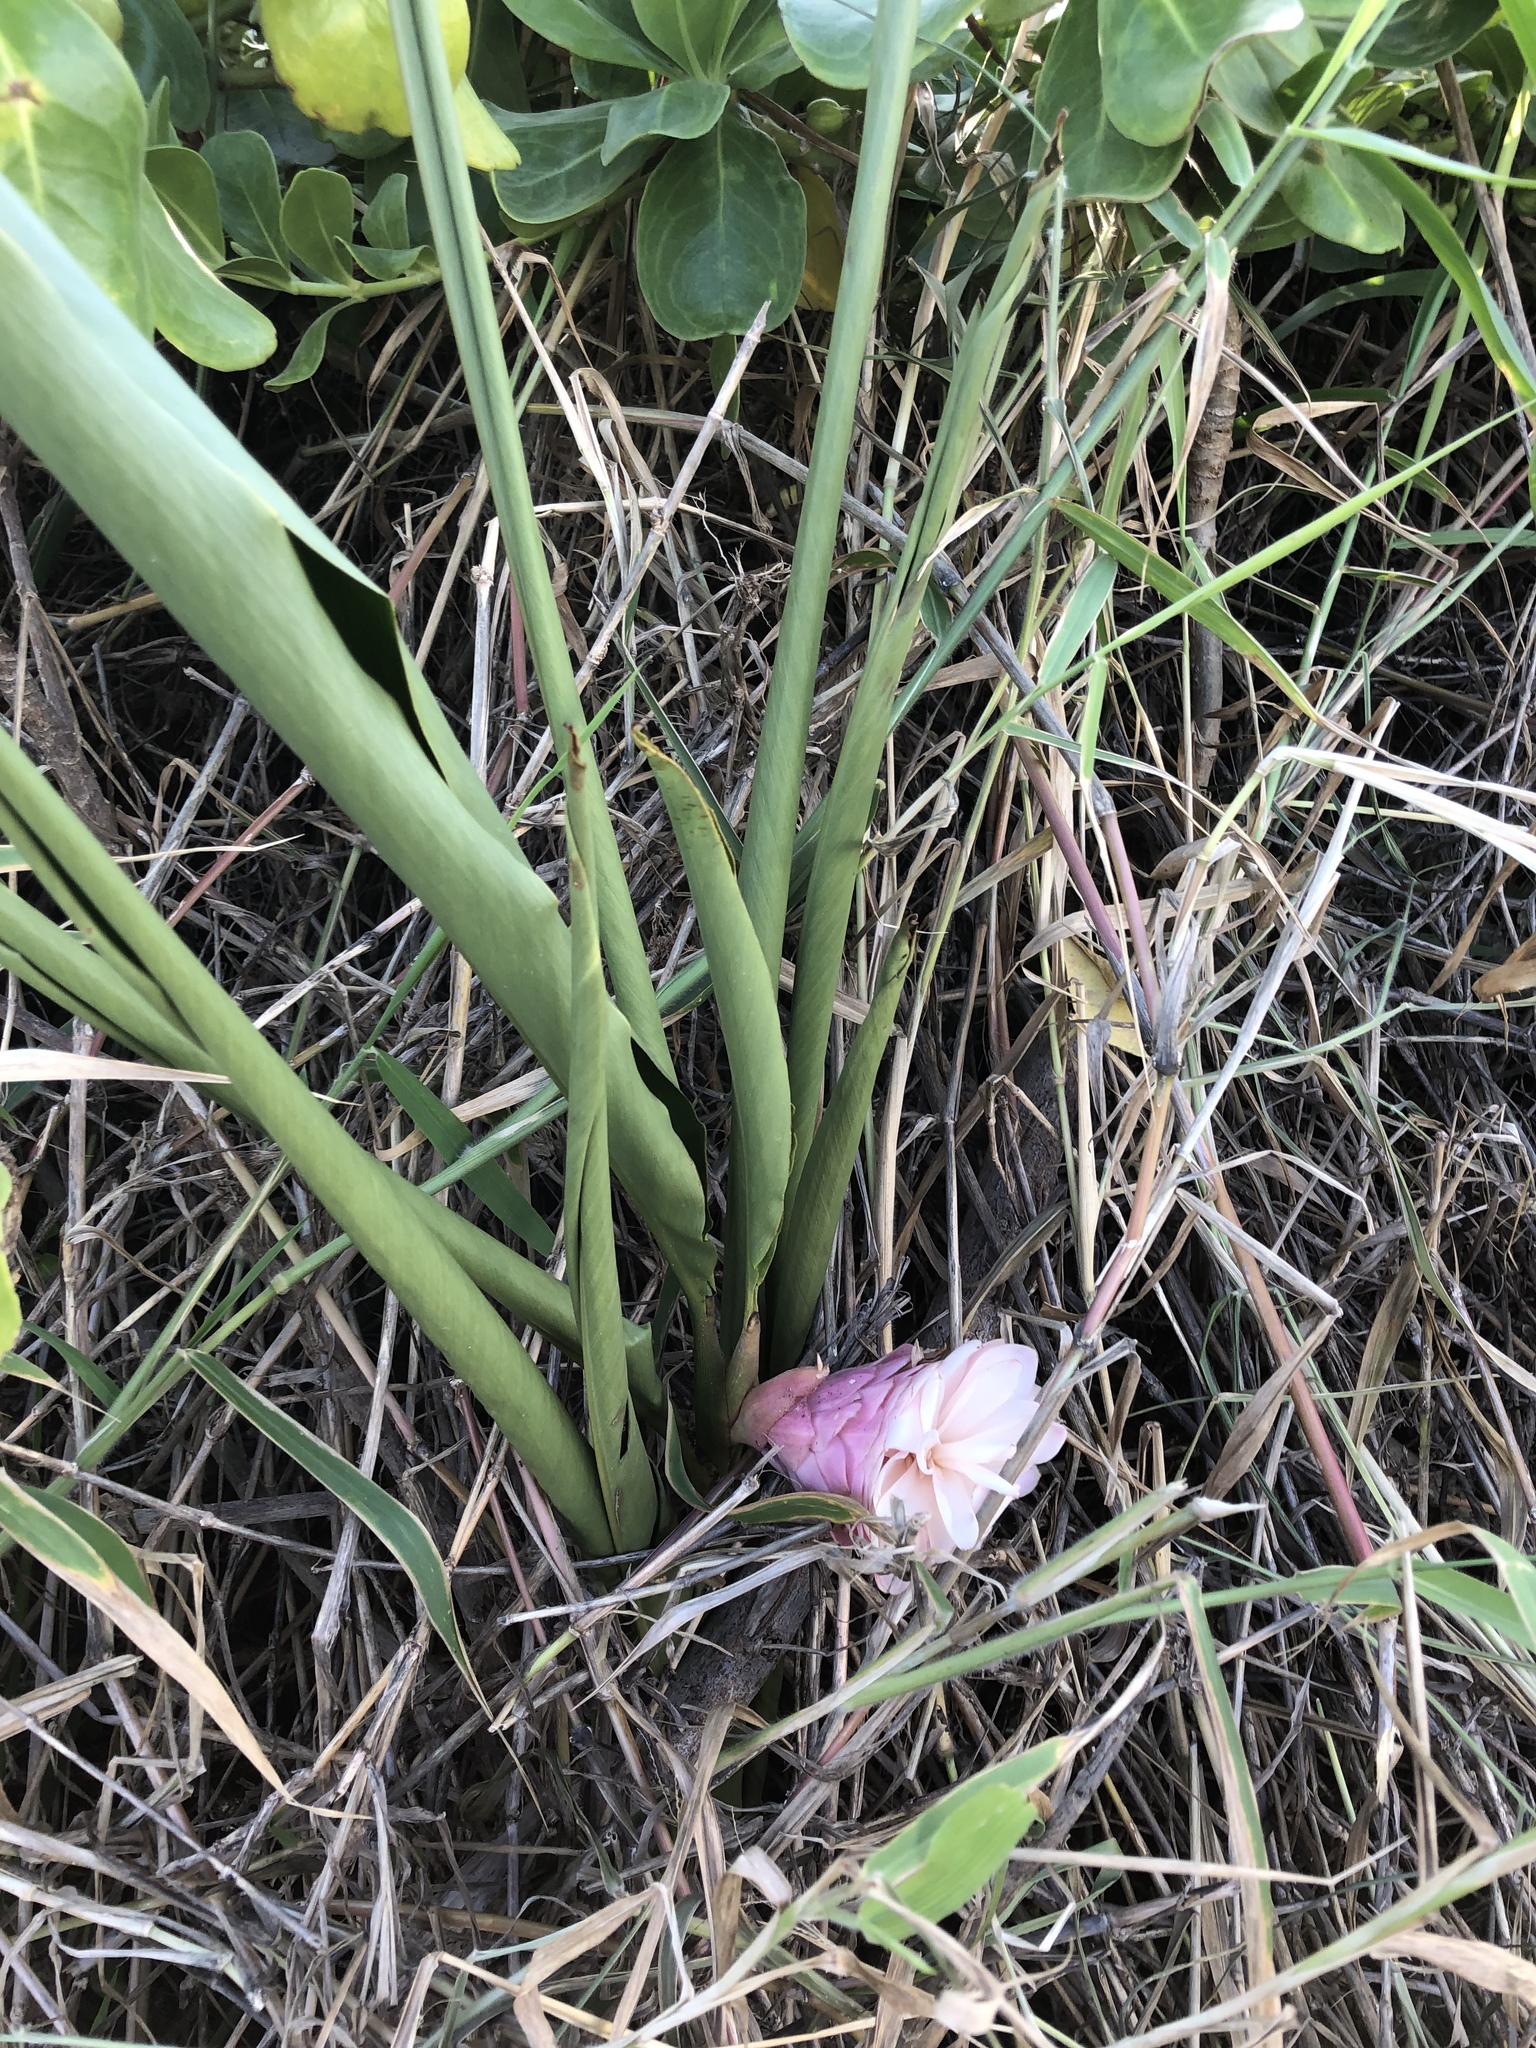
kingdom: Plantae
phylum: Tracheophyta
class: Liliopsida
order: Zingiberales
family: Zingiberaceae
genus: Alpinia
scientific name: Alpinia purpurata
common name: Red ginger
